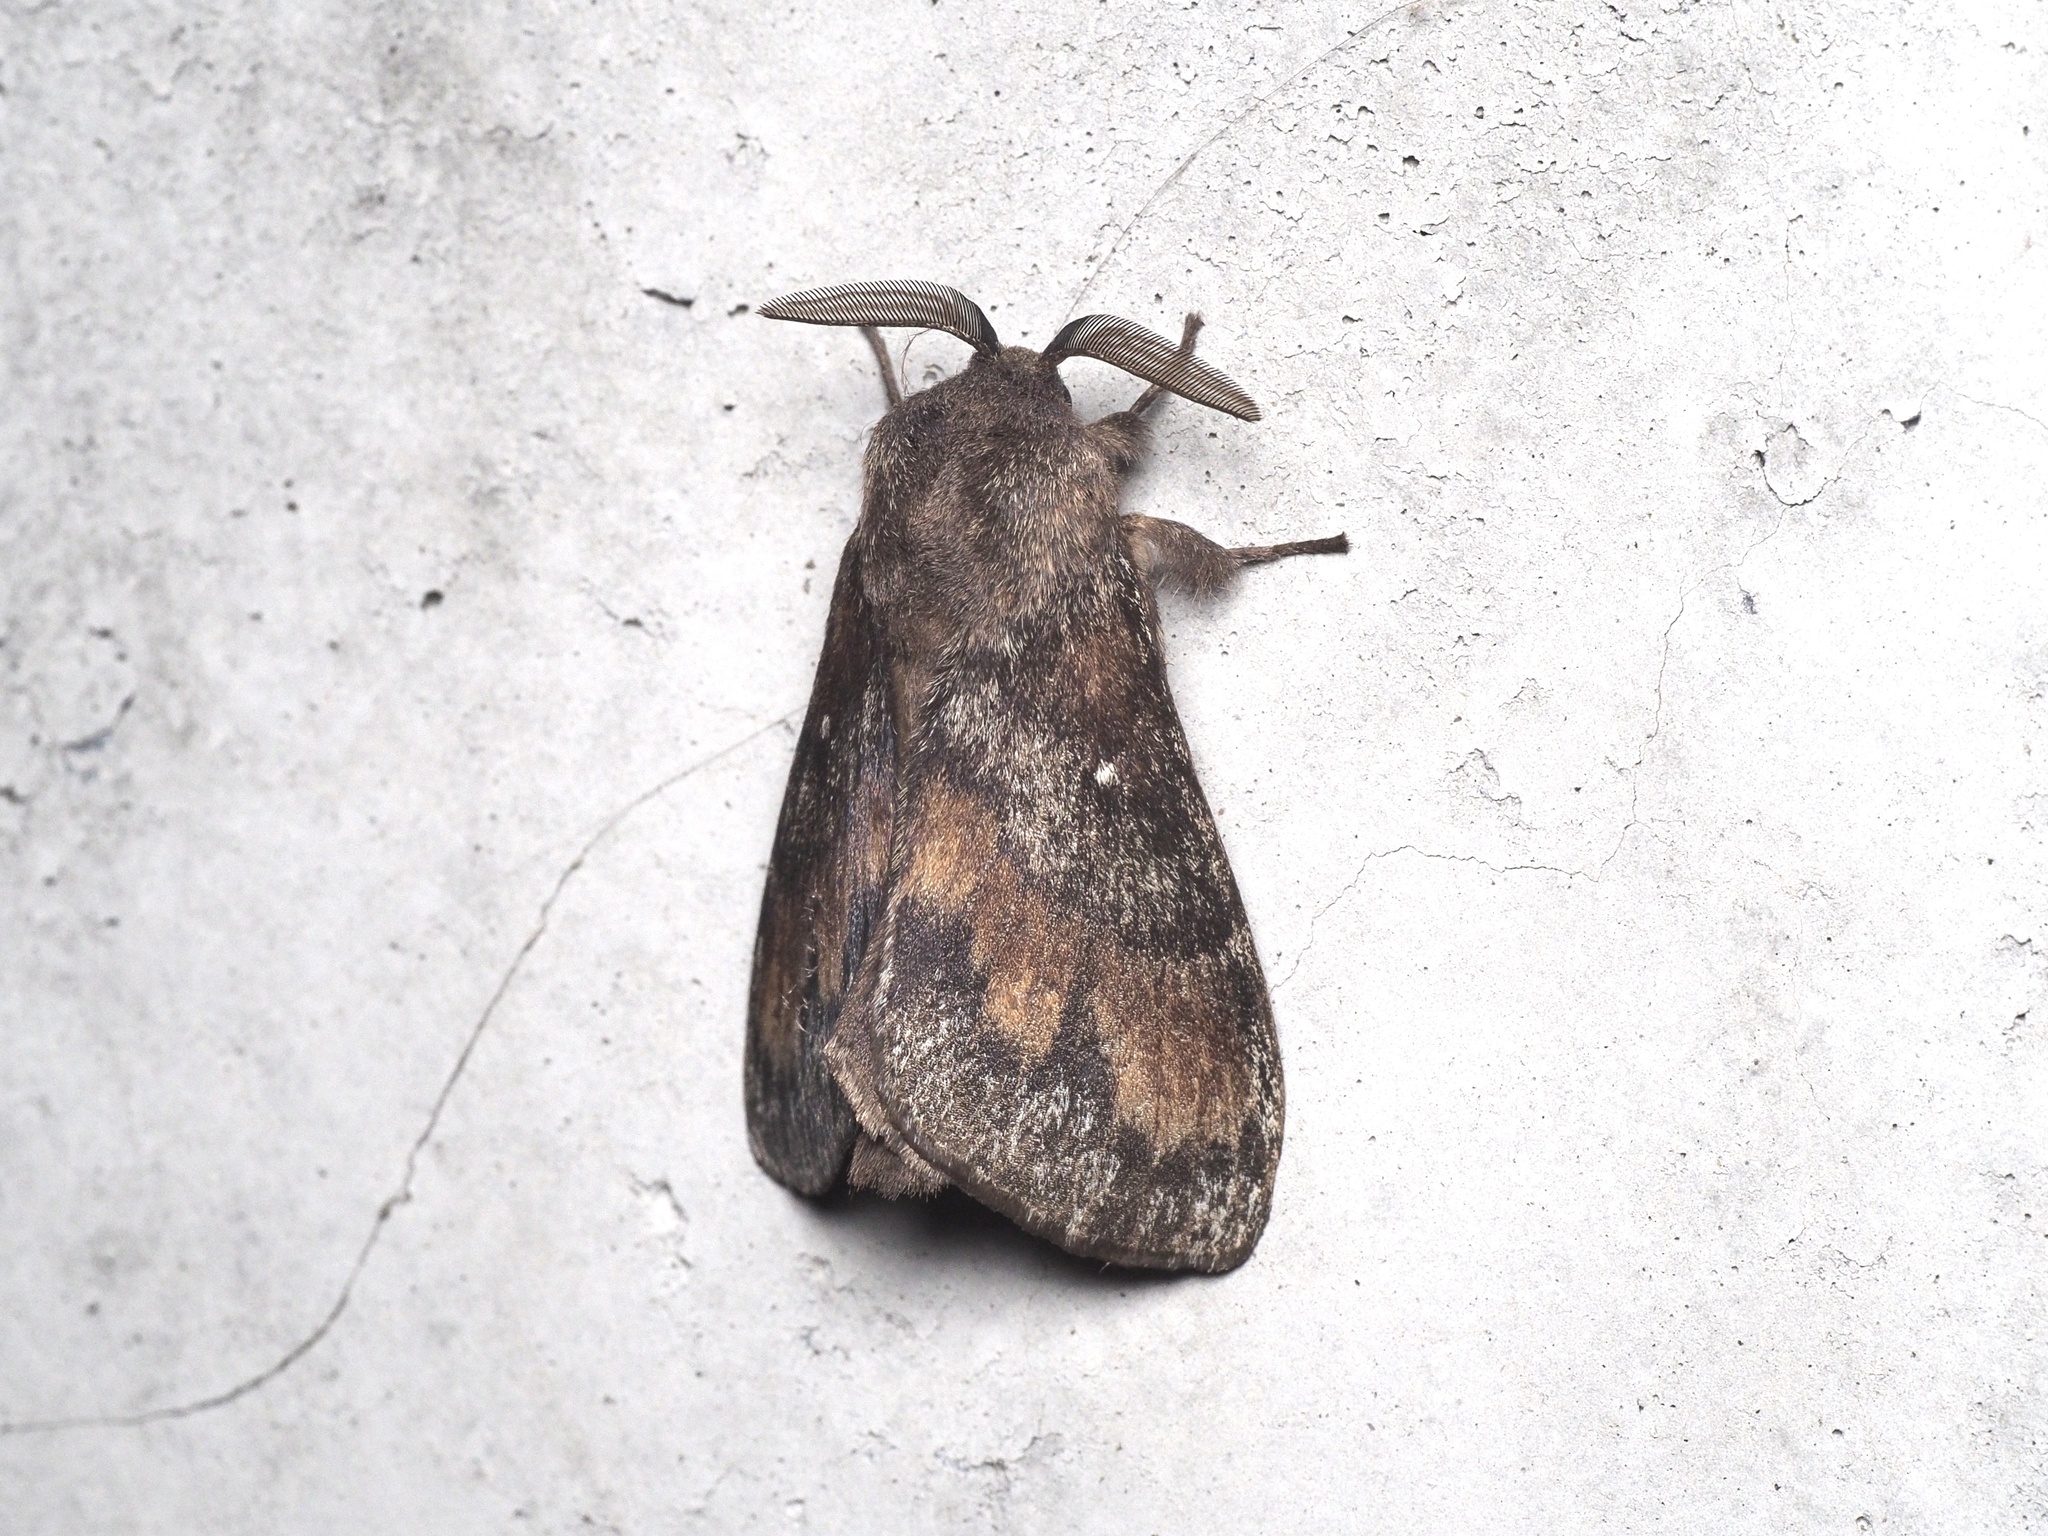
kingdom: Animalia
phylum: Arthropoda
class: Insecta
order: Lepidoptera
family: Lasiocampidae
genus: Dendrolimus
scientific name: Dendrolimus pini
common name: Pine-tree lappet
